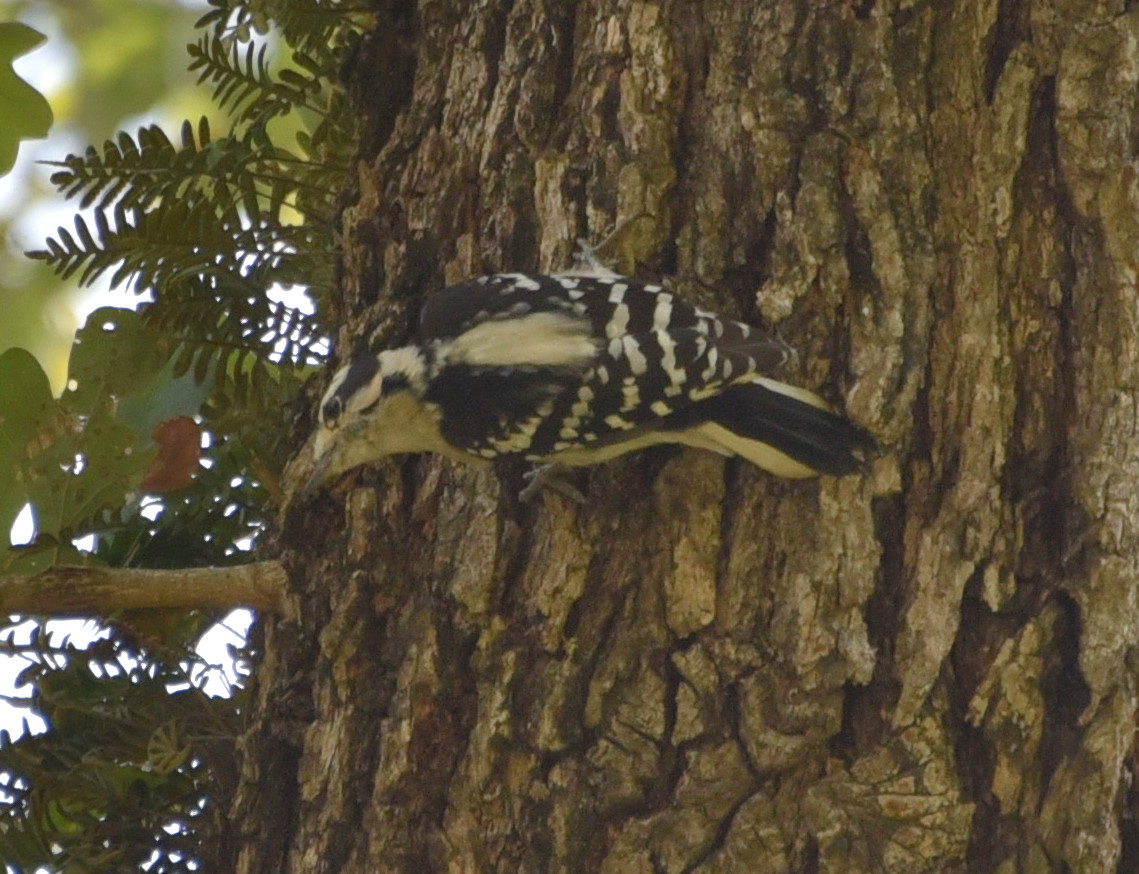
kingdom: Animalia
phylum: Chordata
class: Aves
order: Piciformes
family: Picidae
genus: Dryobates
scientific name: Dryobates pubescens
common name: Downy woodpecker
